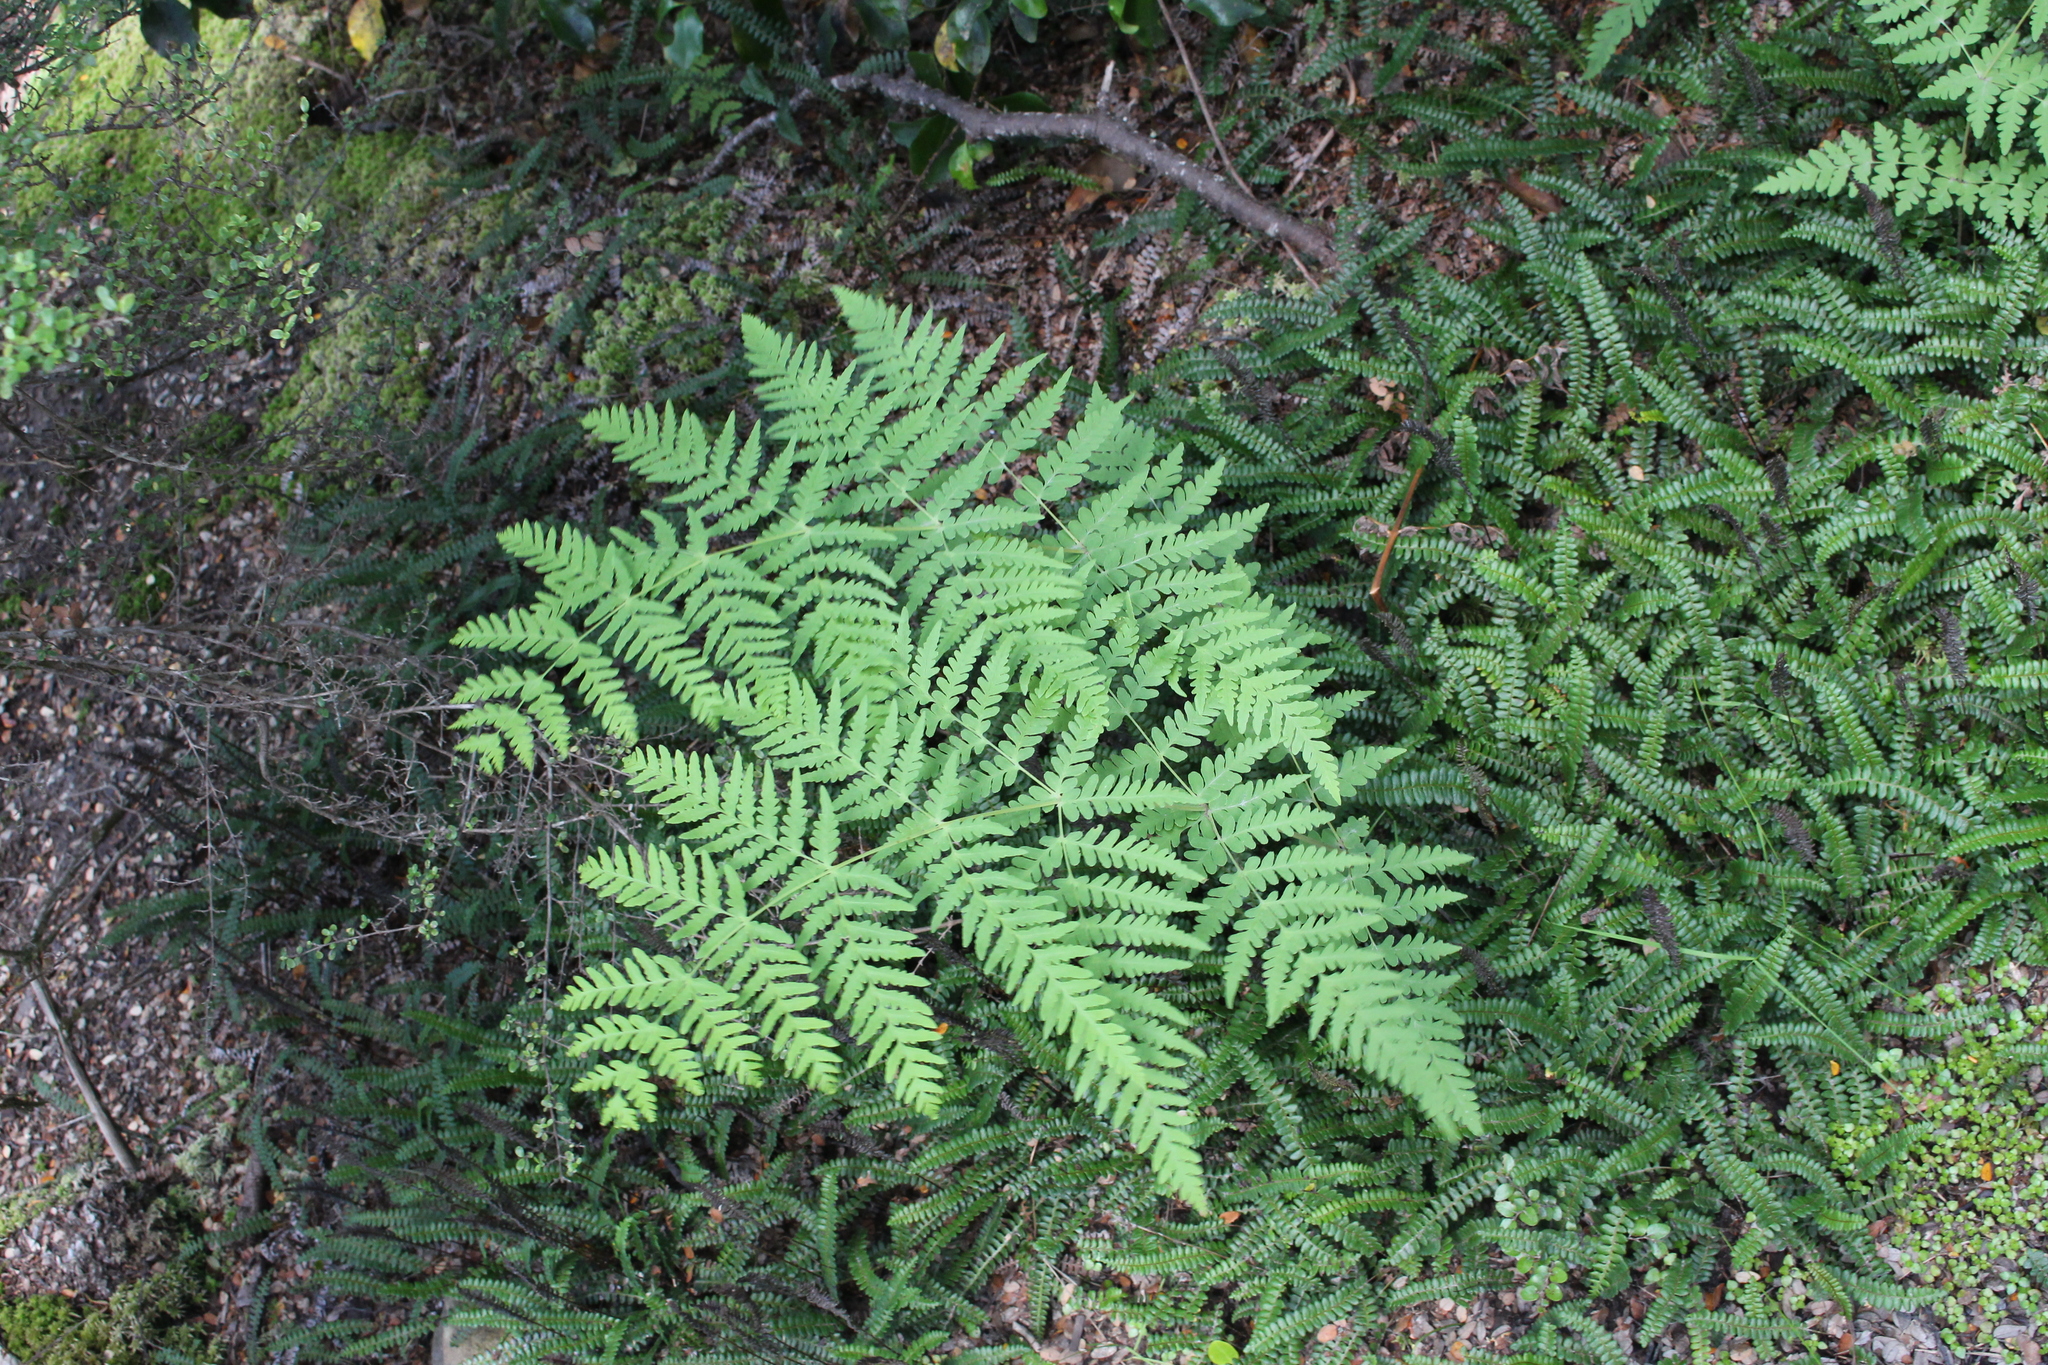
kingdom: Plantae
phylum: Tracheophyta
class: Polypodiopsida
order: Polypodiales
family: Dennstaedtiaceae
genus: Histiopteris
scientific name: Histiopteris incisa
